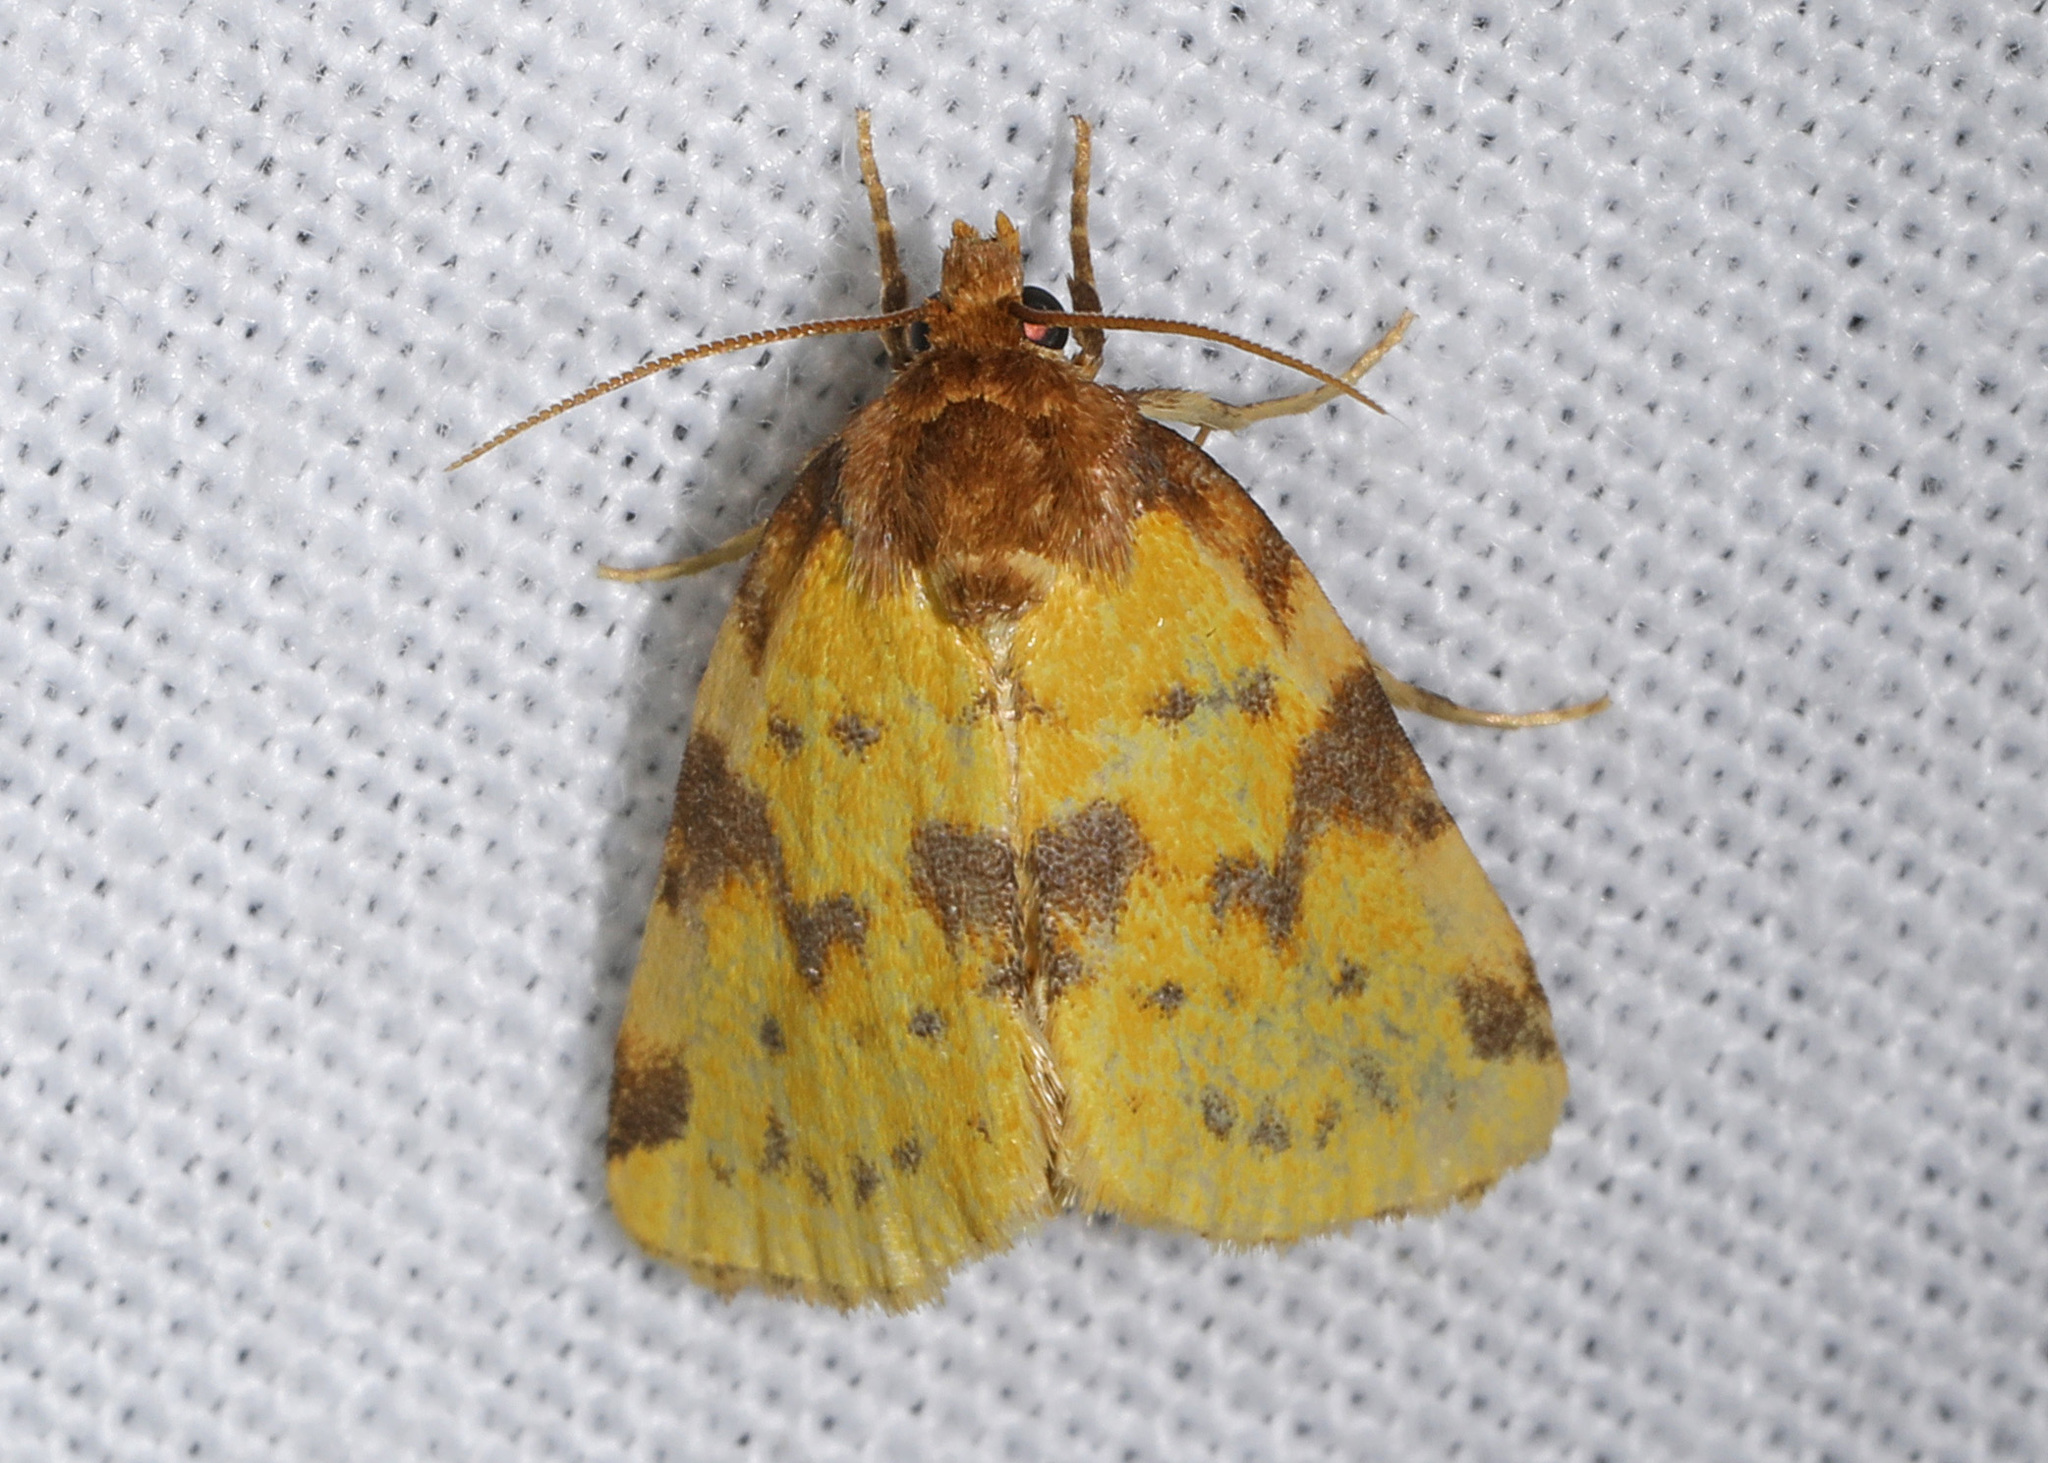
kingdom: Animalia
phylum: Arthropoda
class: Insecta
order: Lepidoptera
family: Noctuidae
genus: Azenia
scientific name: Azenia obtusa
